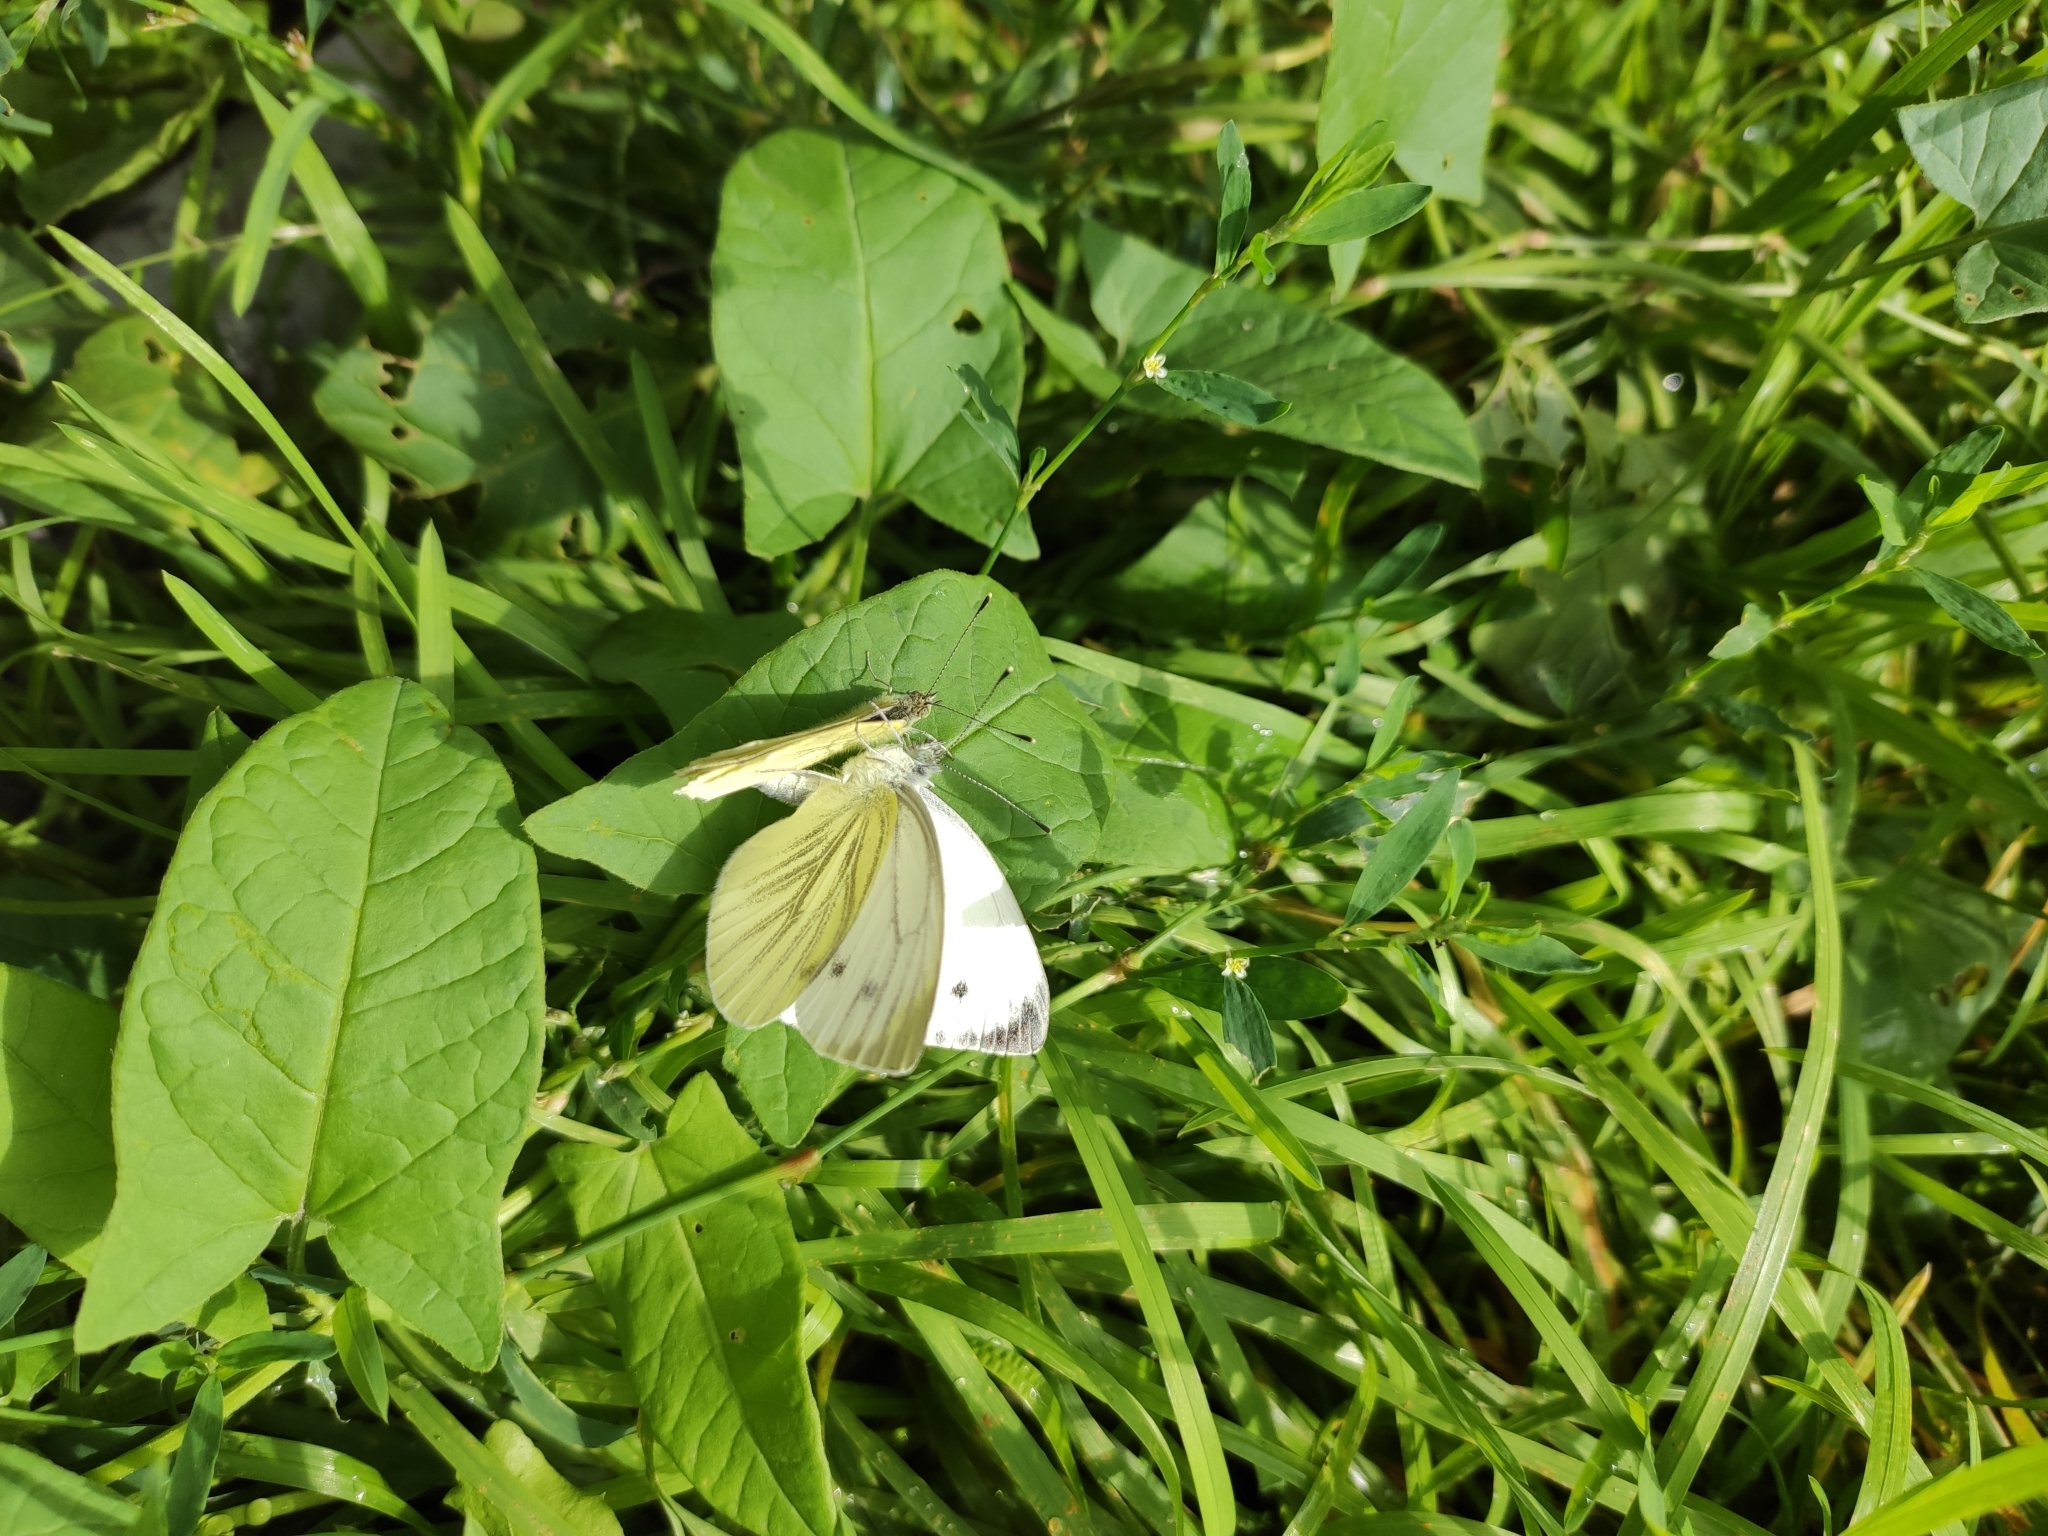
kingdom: Animalia
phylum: Arthropoda
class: Insecta
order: Lepidoptera
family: Pieridae
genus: Pieris
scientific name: Pieris napi
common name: Green-veined white
